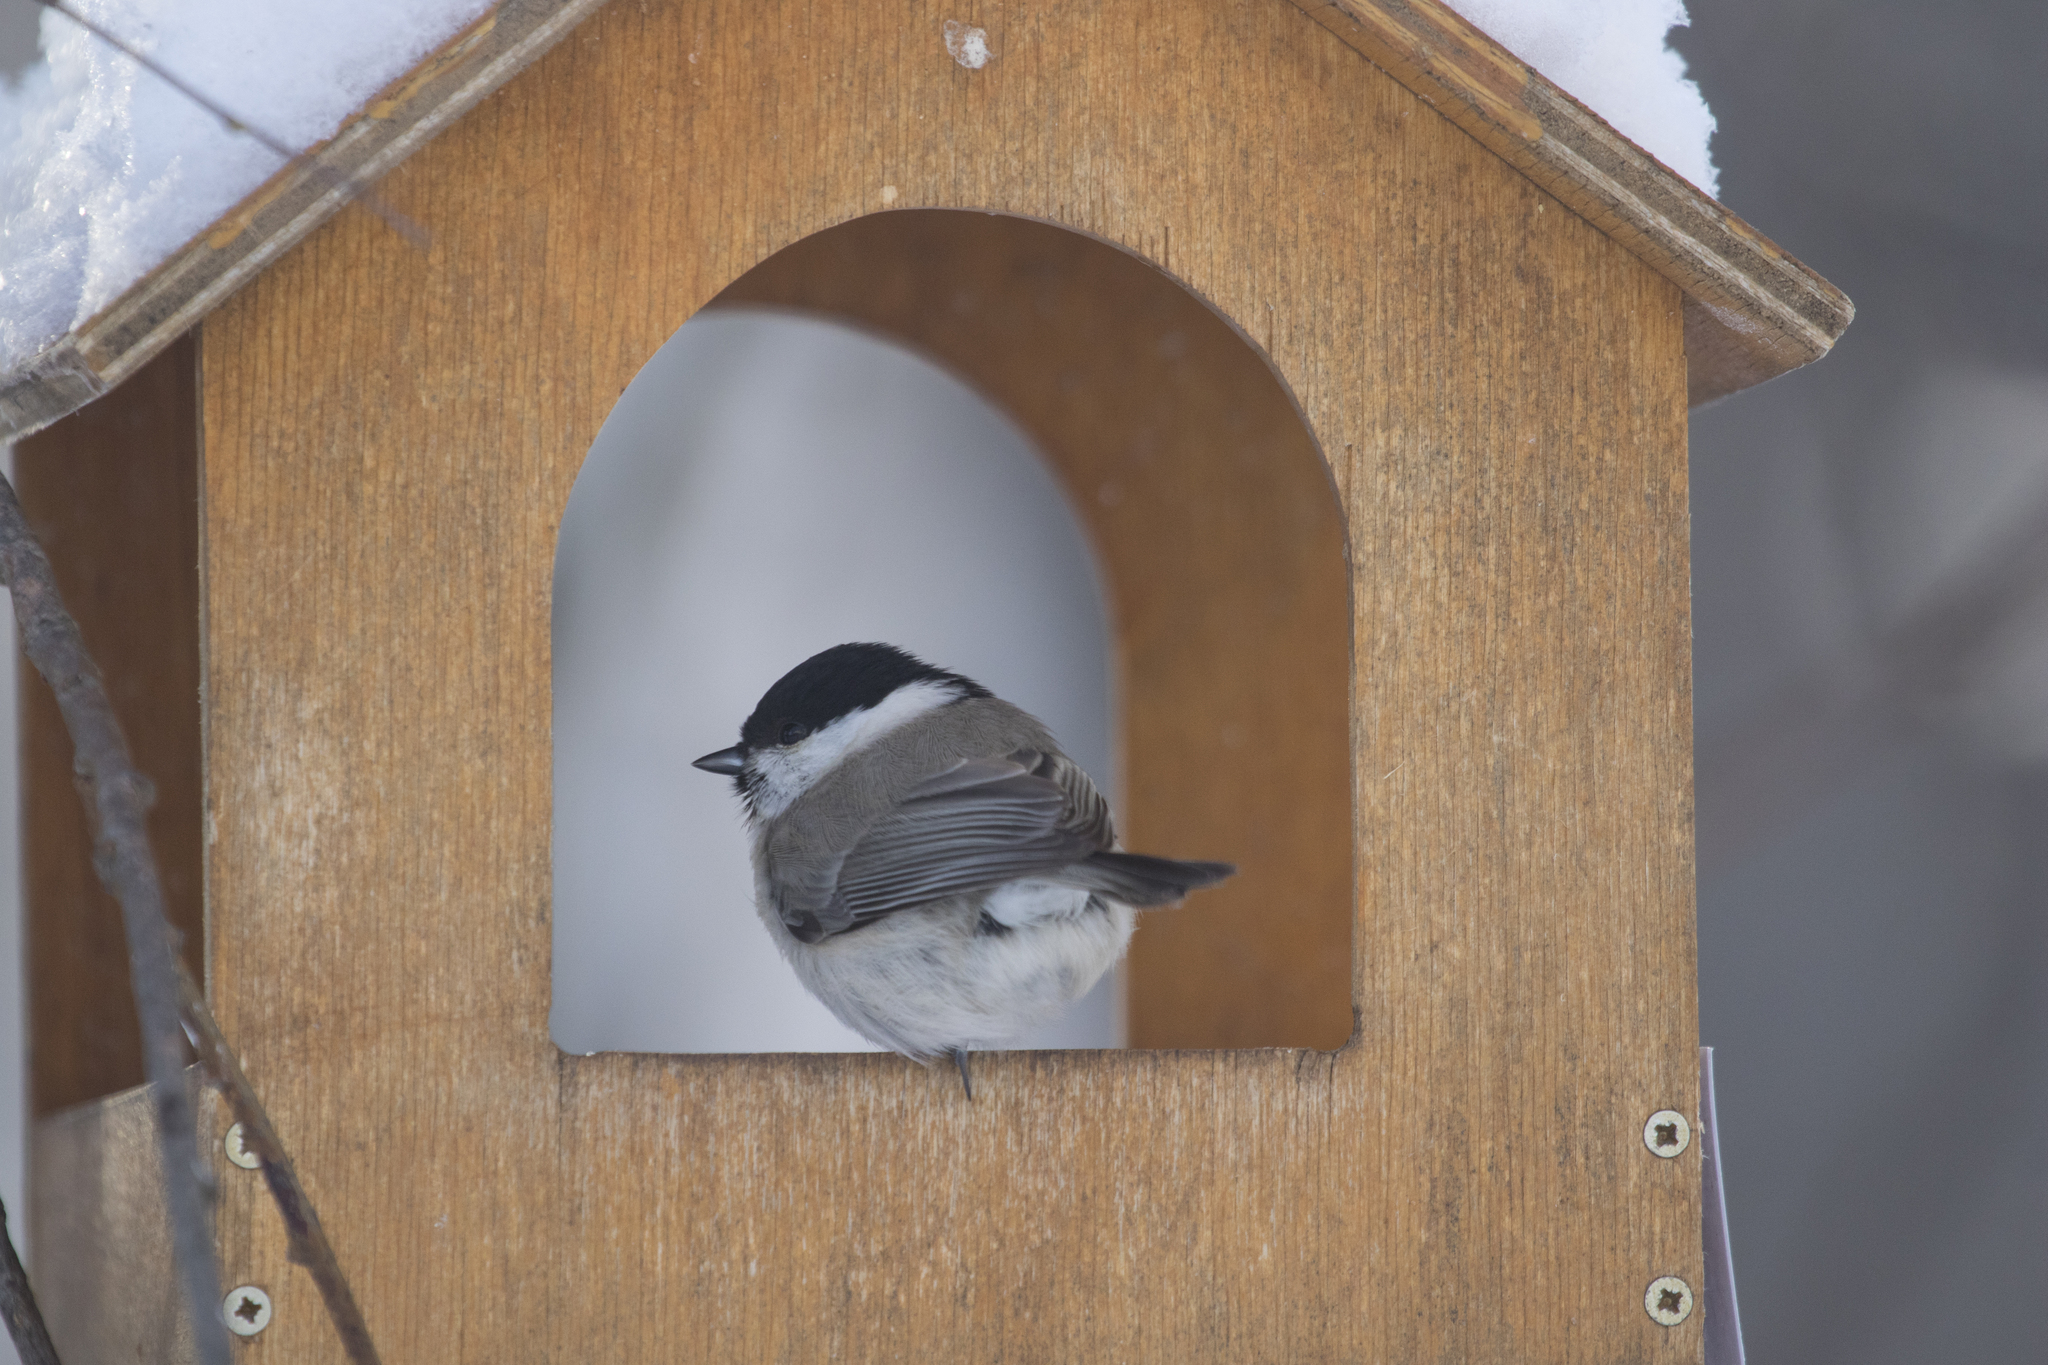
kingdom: Animalia
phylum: Chordata
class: Aves
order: Passeriformes
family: Paridae
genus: Poecile
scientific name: Poecile palustris
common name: Marsh tit
